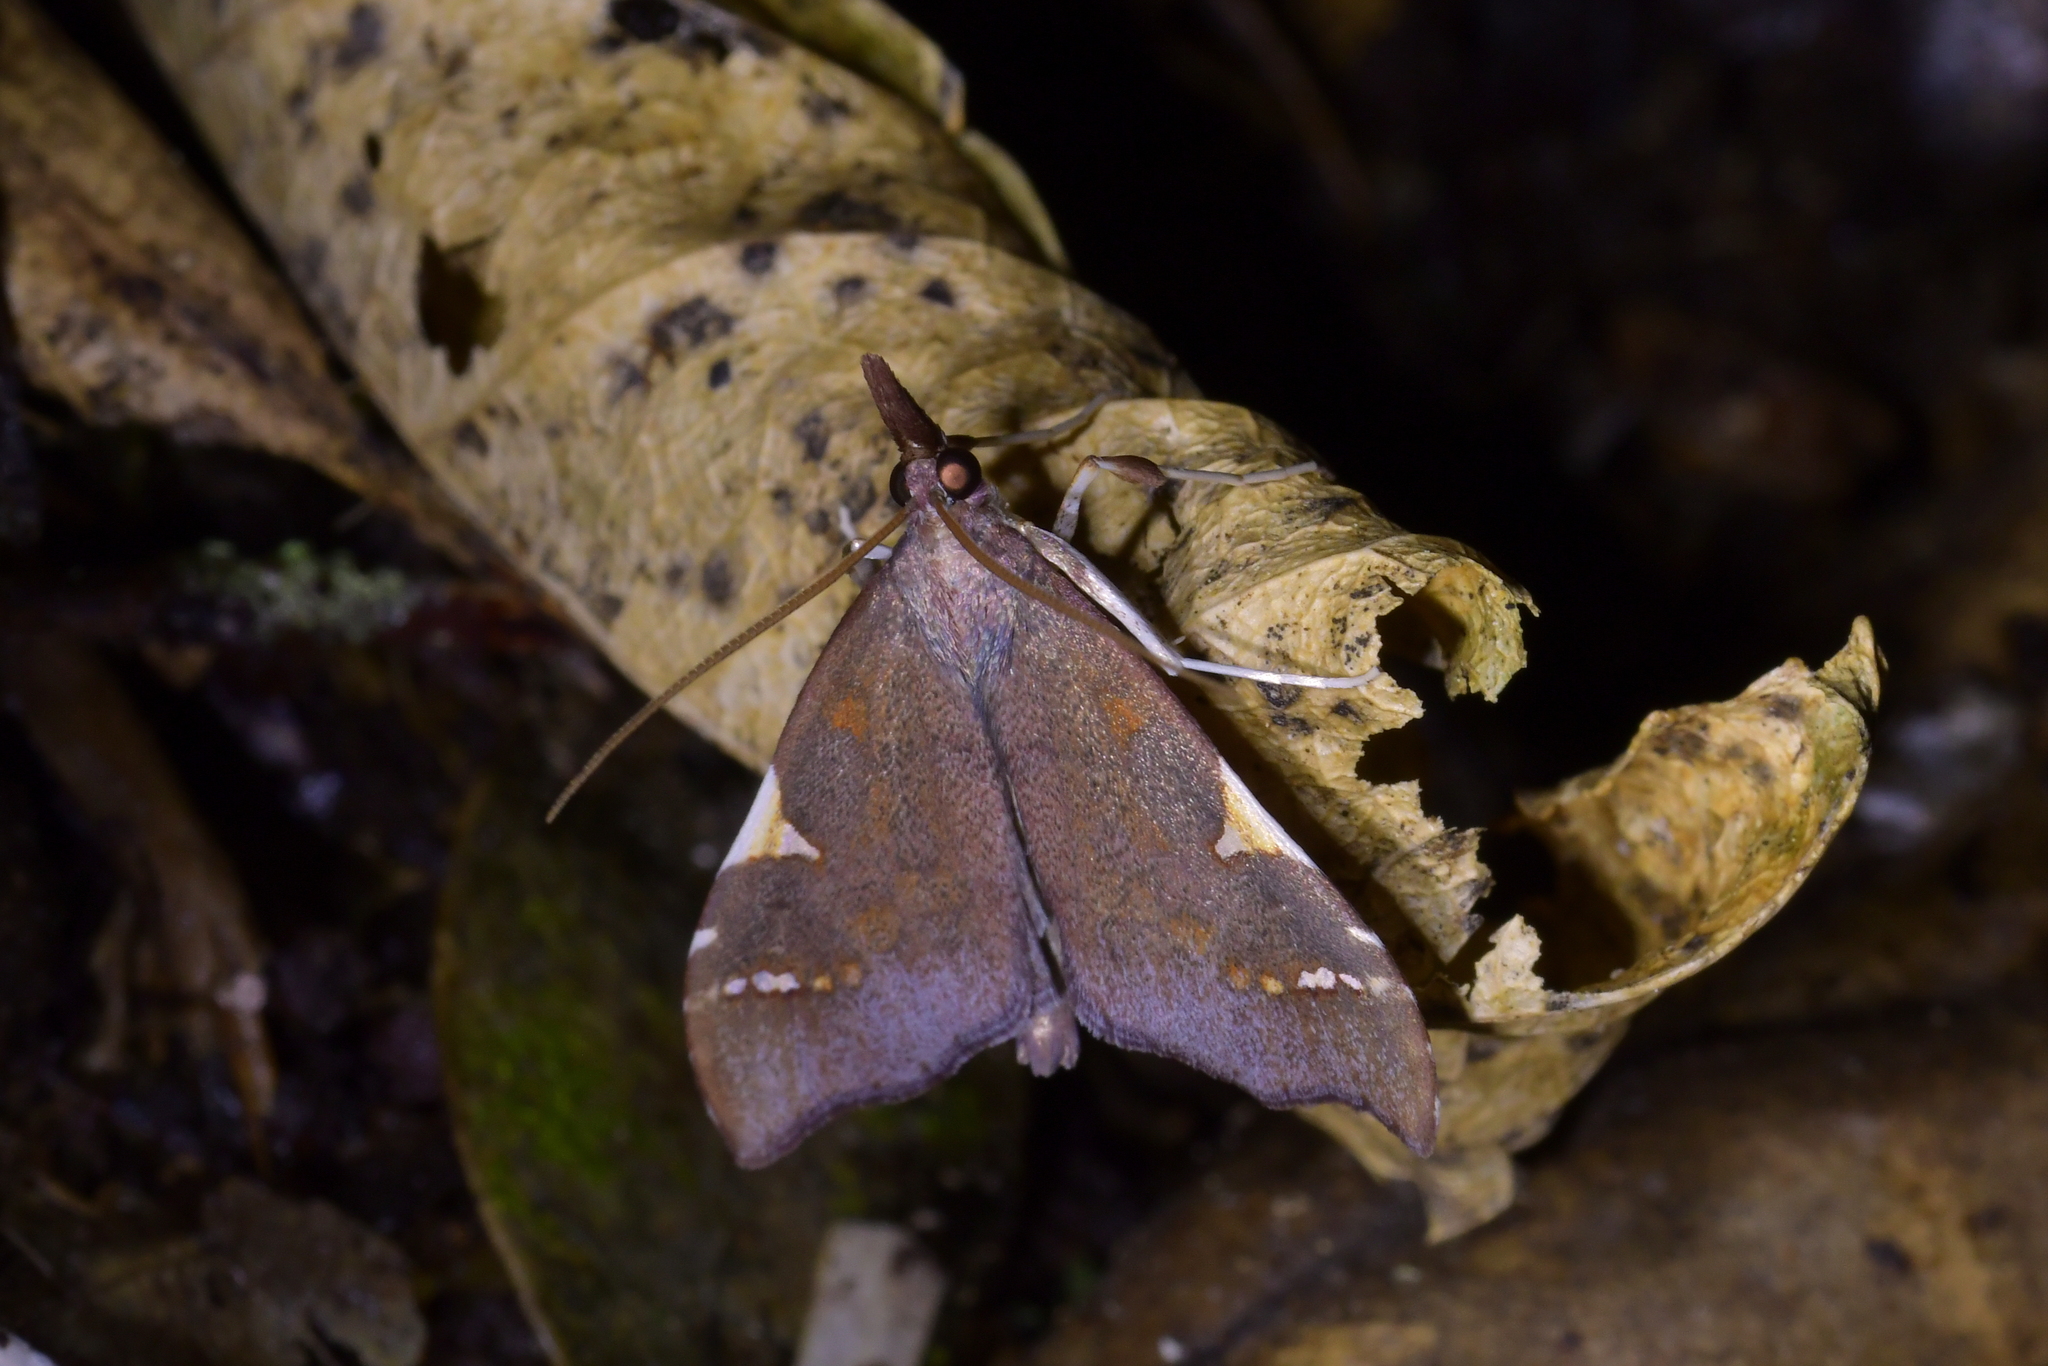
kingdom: Animalia
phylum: Arthropoda
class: Insecta
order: Lepidoptera
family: Crambidae
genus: Deana
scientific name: Deana hybreasalis
